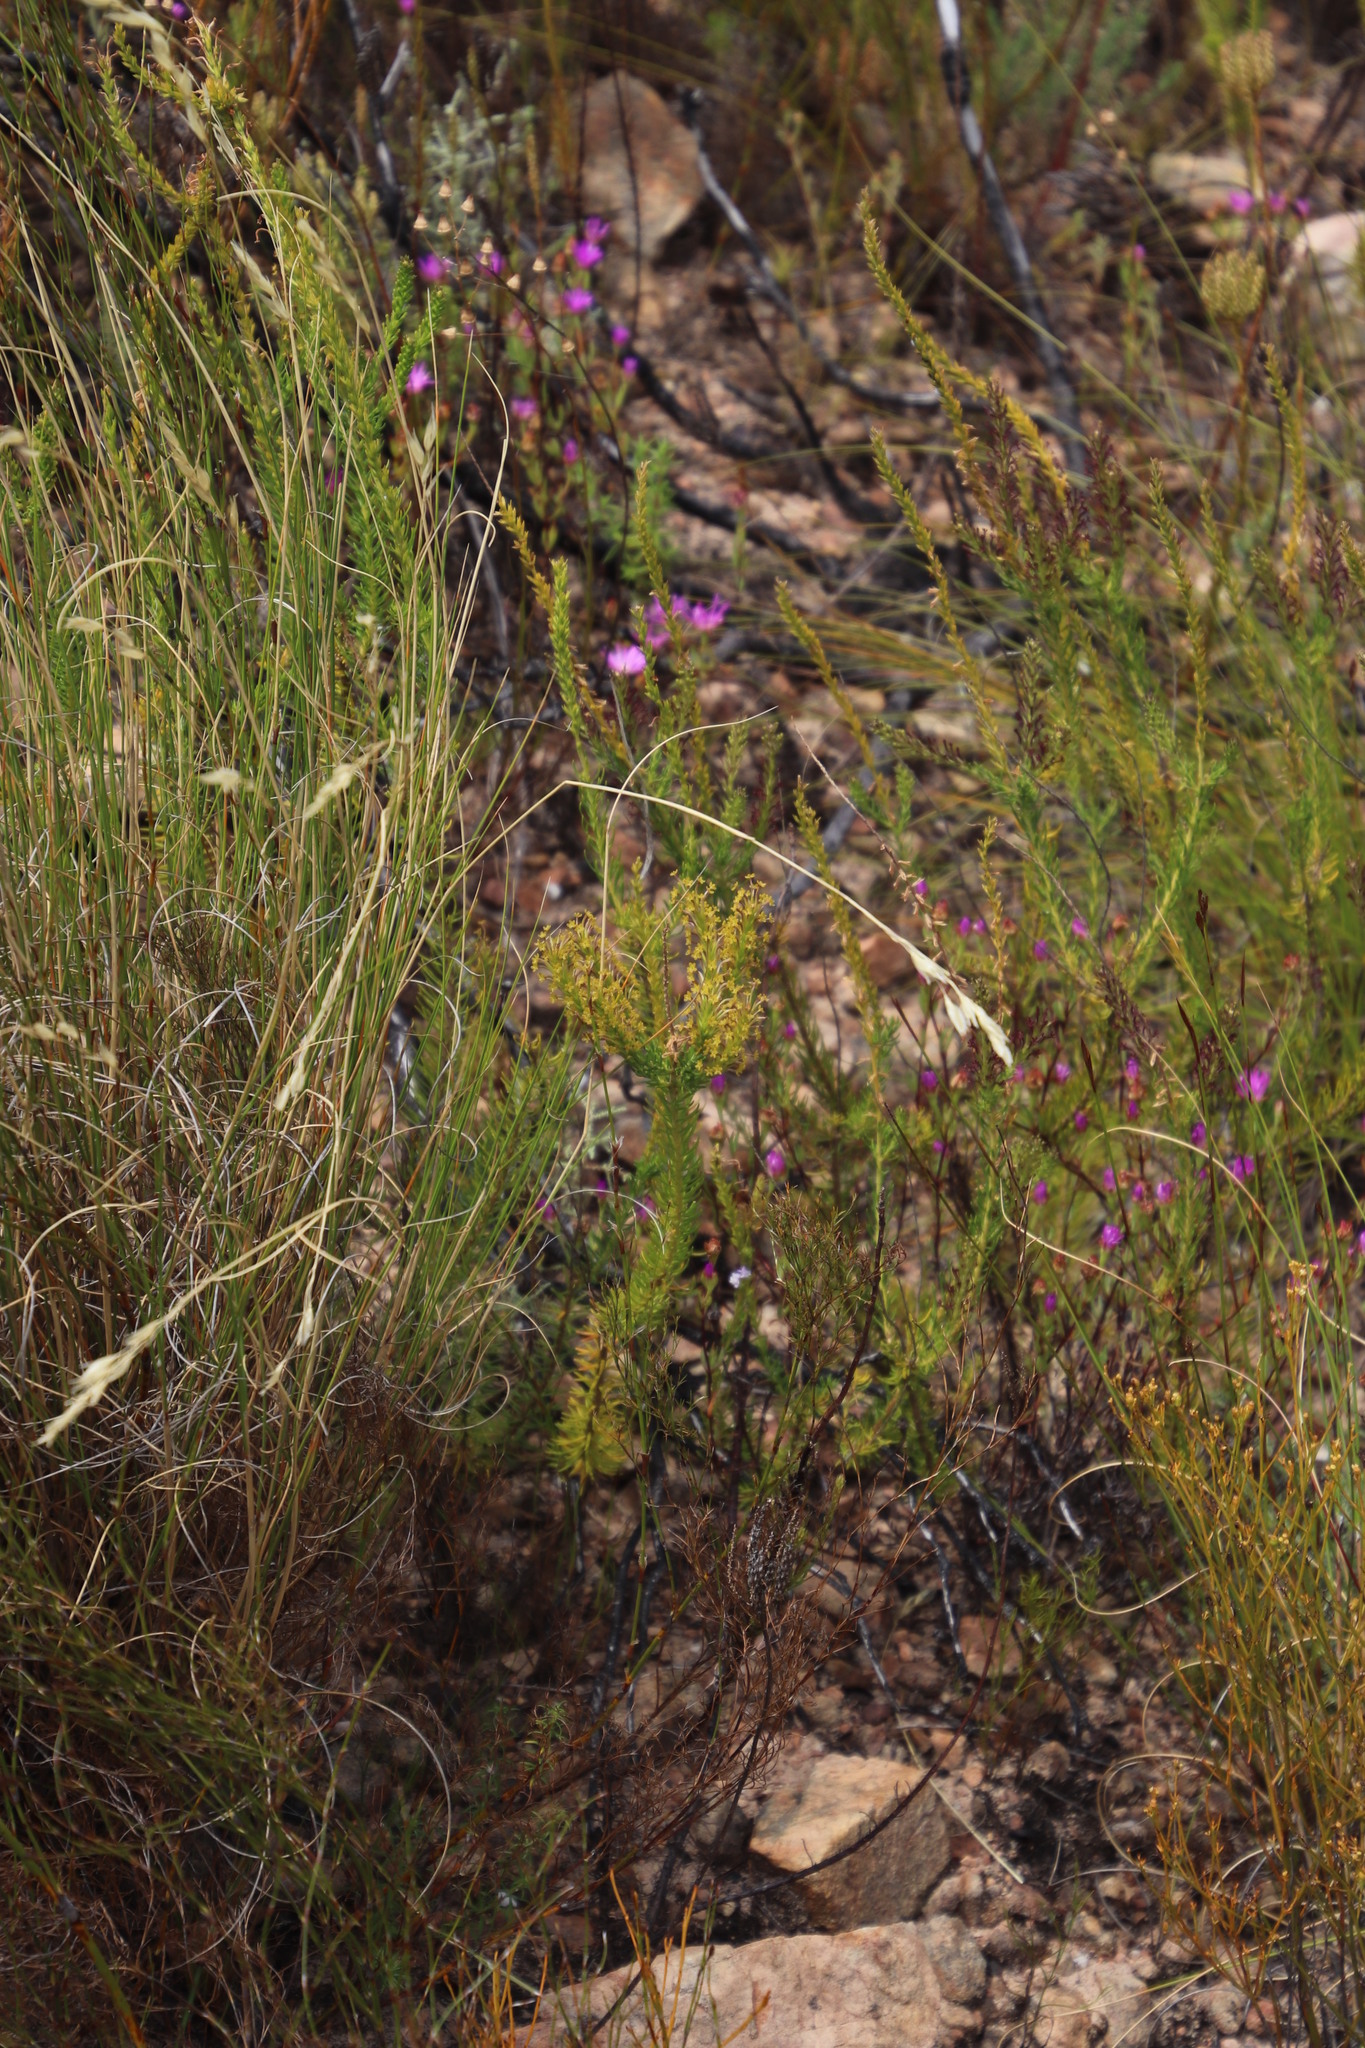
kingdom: Plantae
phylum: Tracheophyta
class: Magnoliopsida
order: Lamiales
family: Scrophulariaceae
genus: Microdon
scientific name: Microdon dubius
